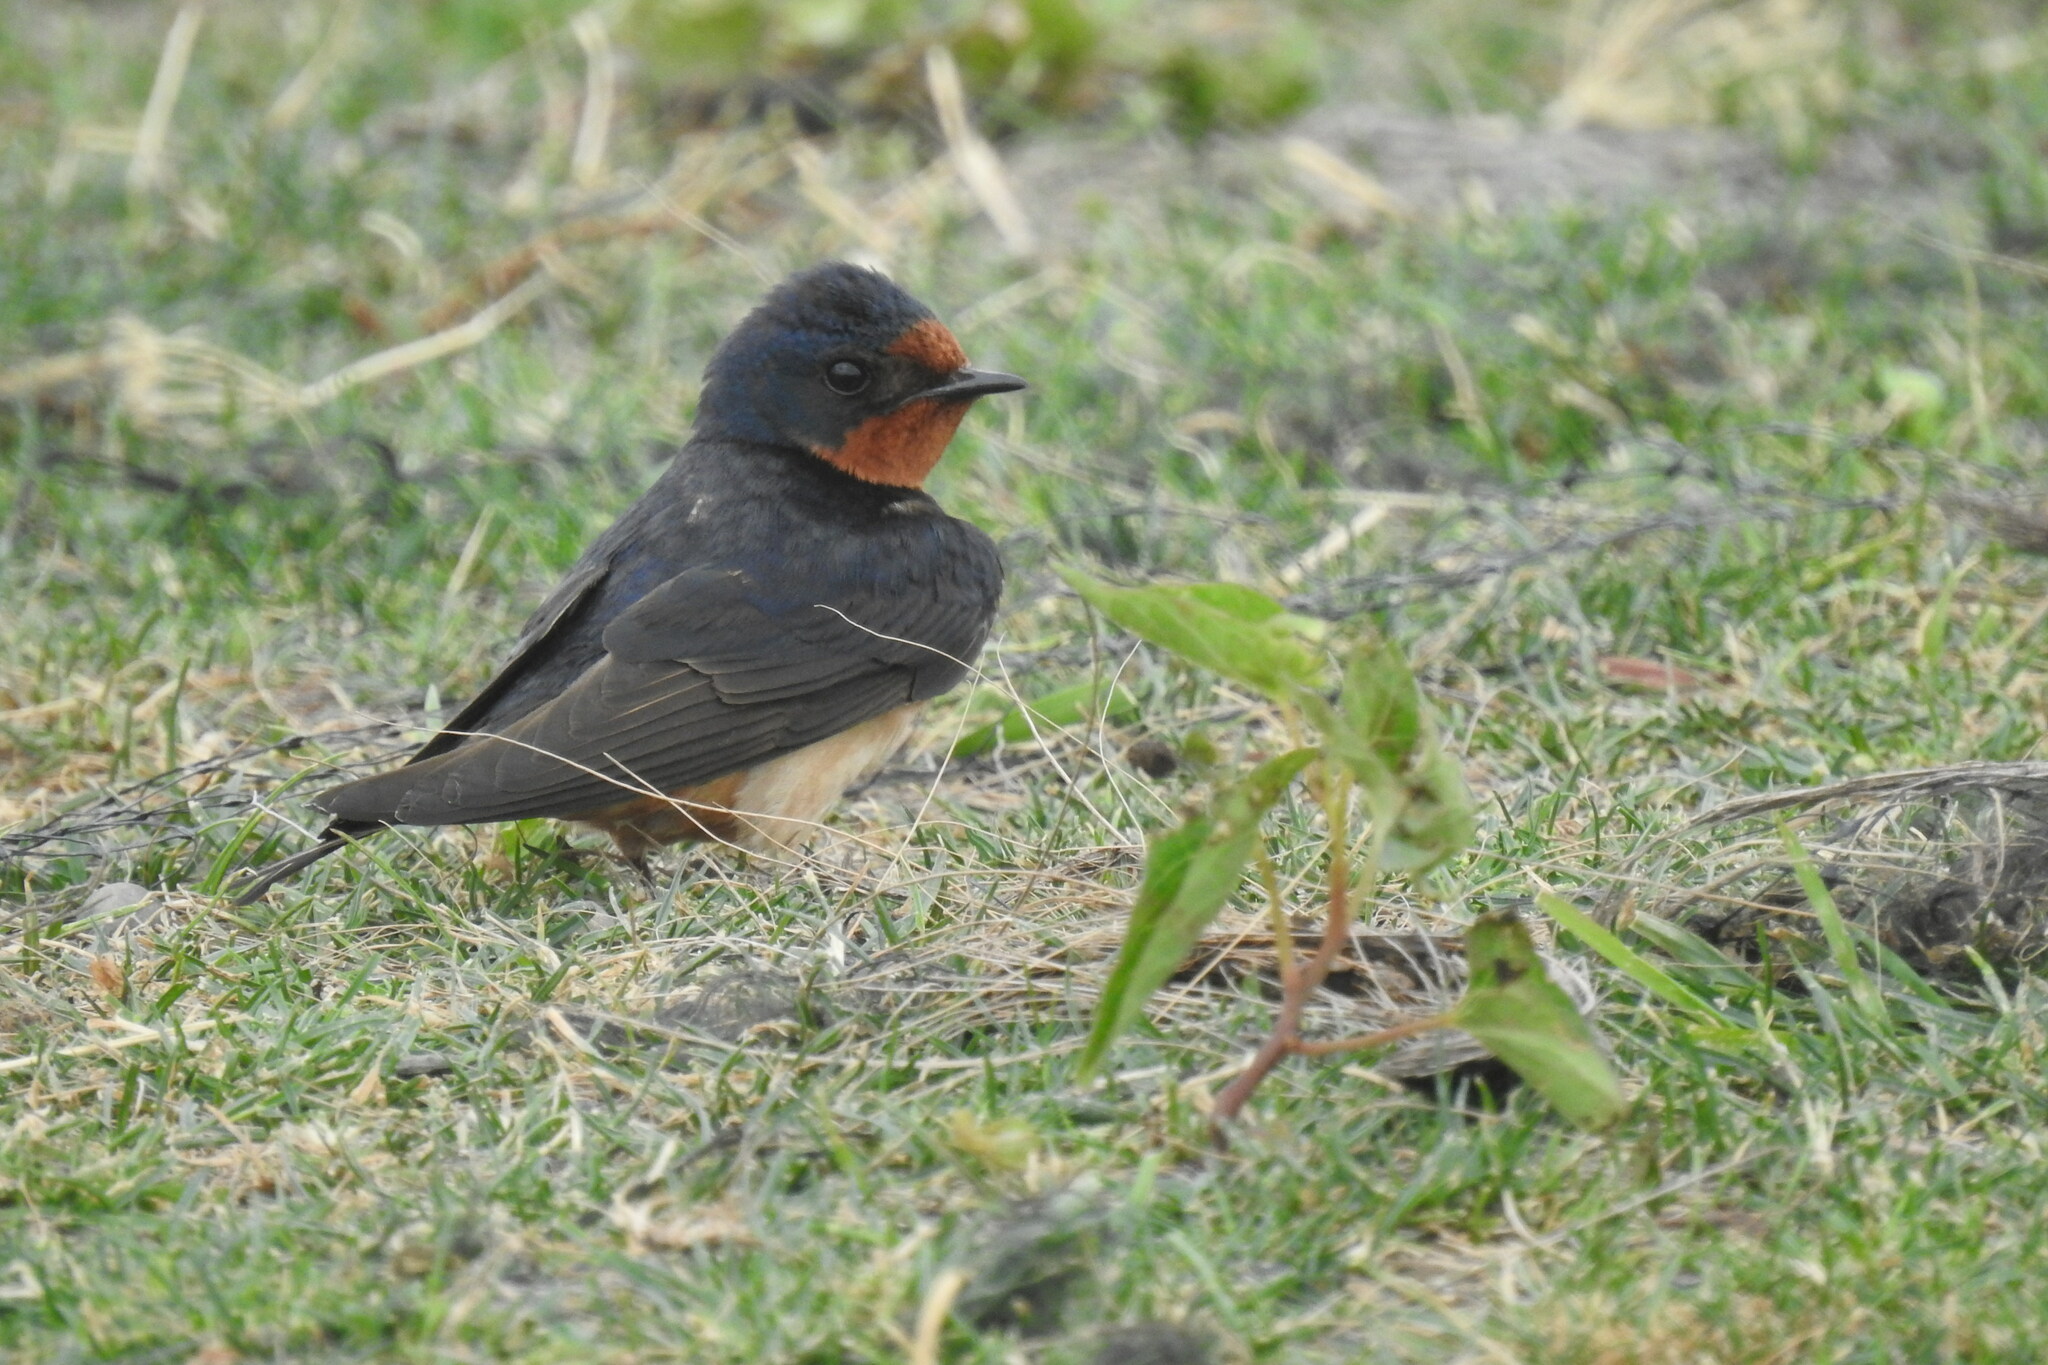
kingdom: Animalia
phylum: Chordata
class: Aves
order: Passeriformes
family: Hirundinidae
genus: Hirundo
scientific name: Hirundo rustica
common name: Barn swallow
